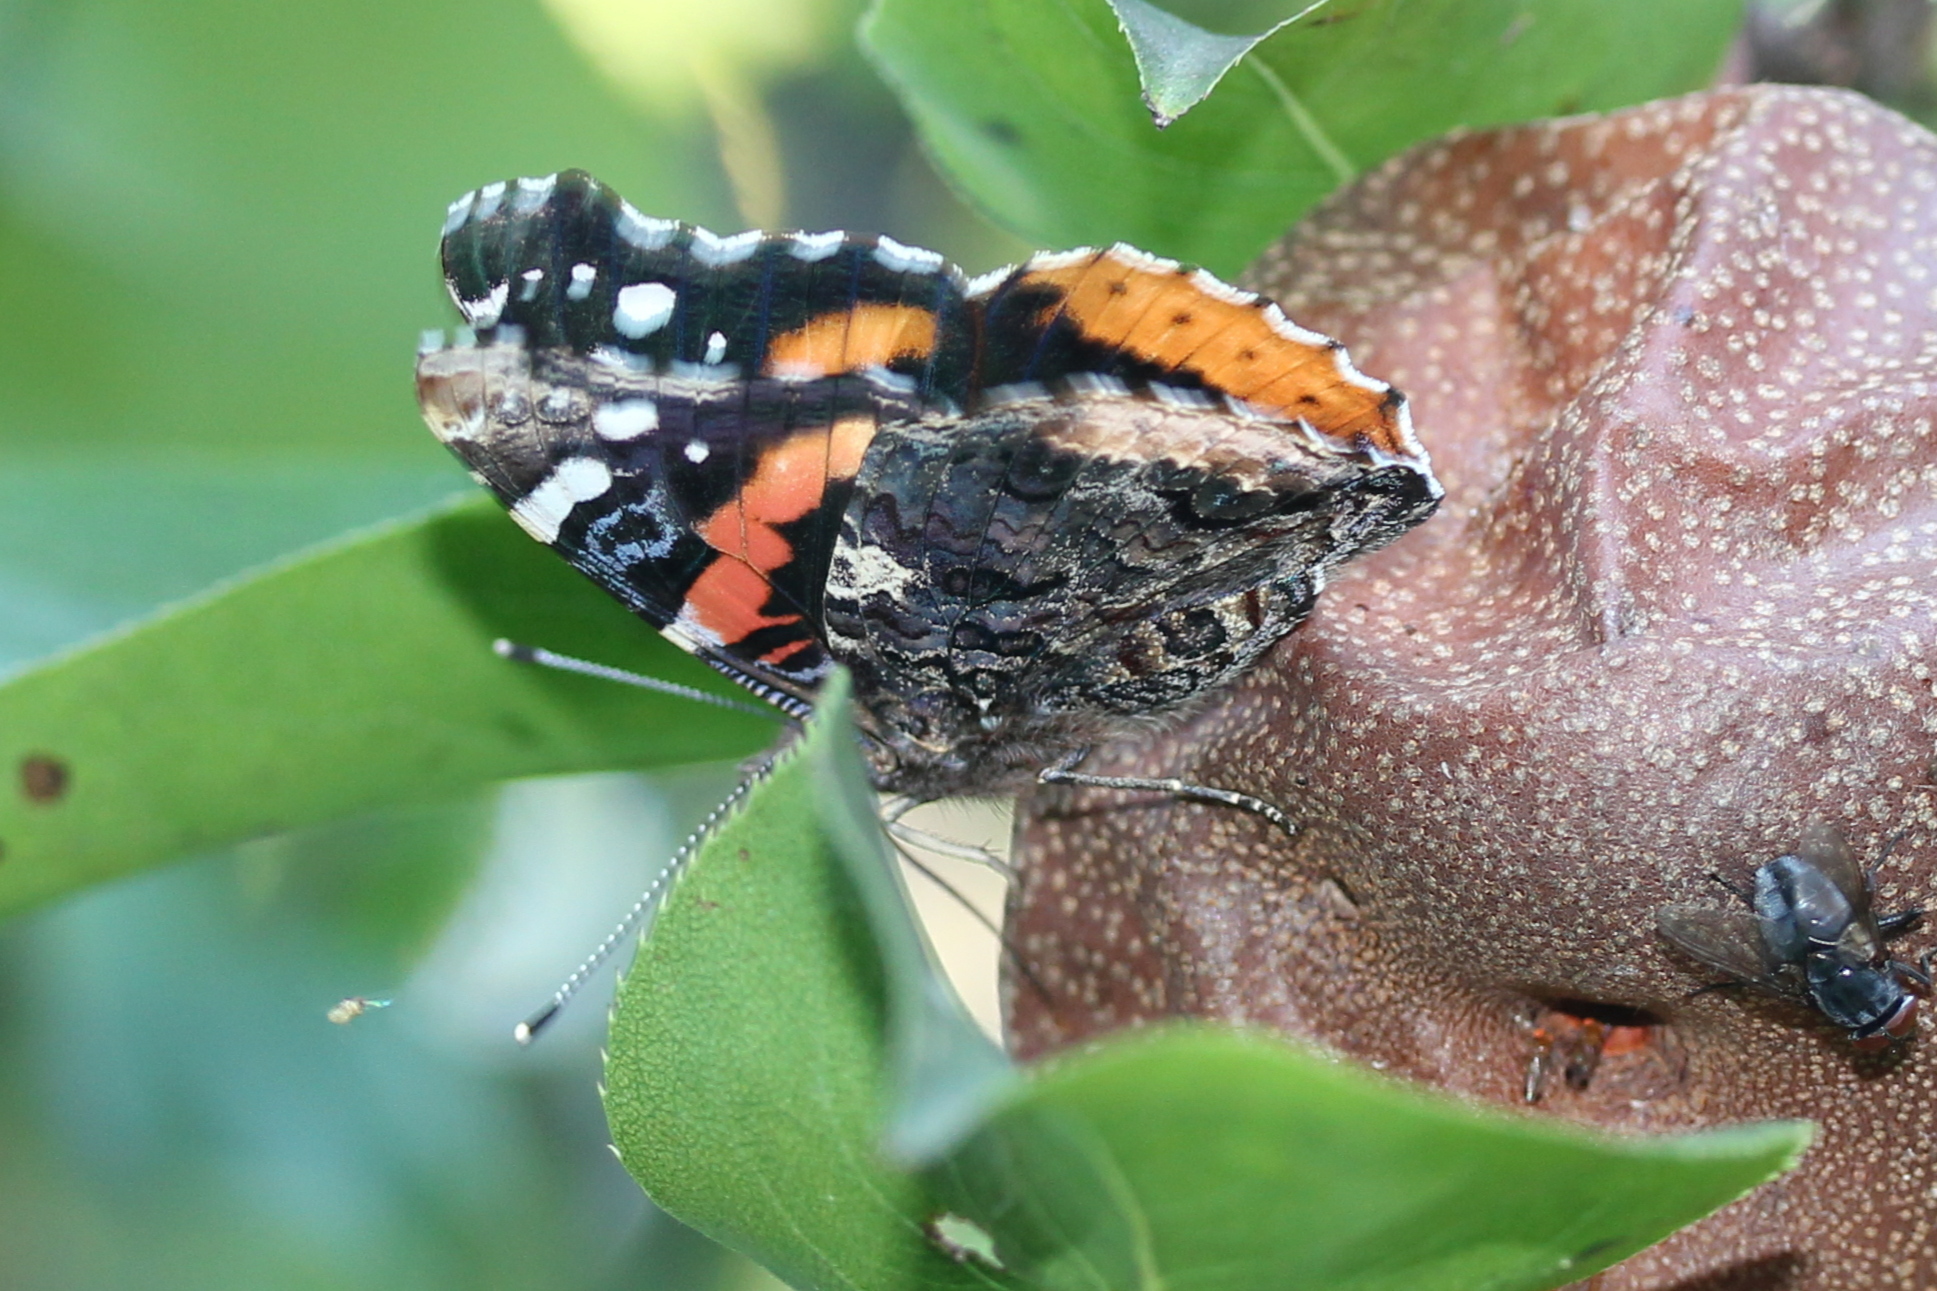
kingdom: Animalia
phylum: Arthropoda
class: Insecta
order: Lepidoptera
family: Nymphalidae
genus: Vanessa
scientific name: Vanessa atalanta
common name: Red admiral
